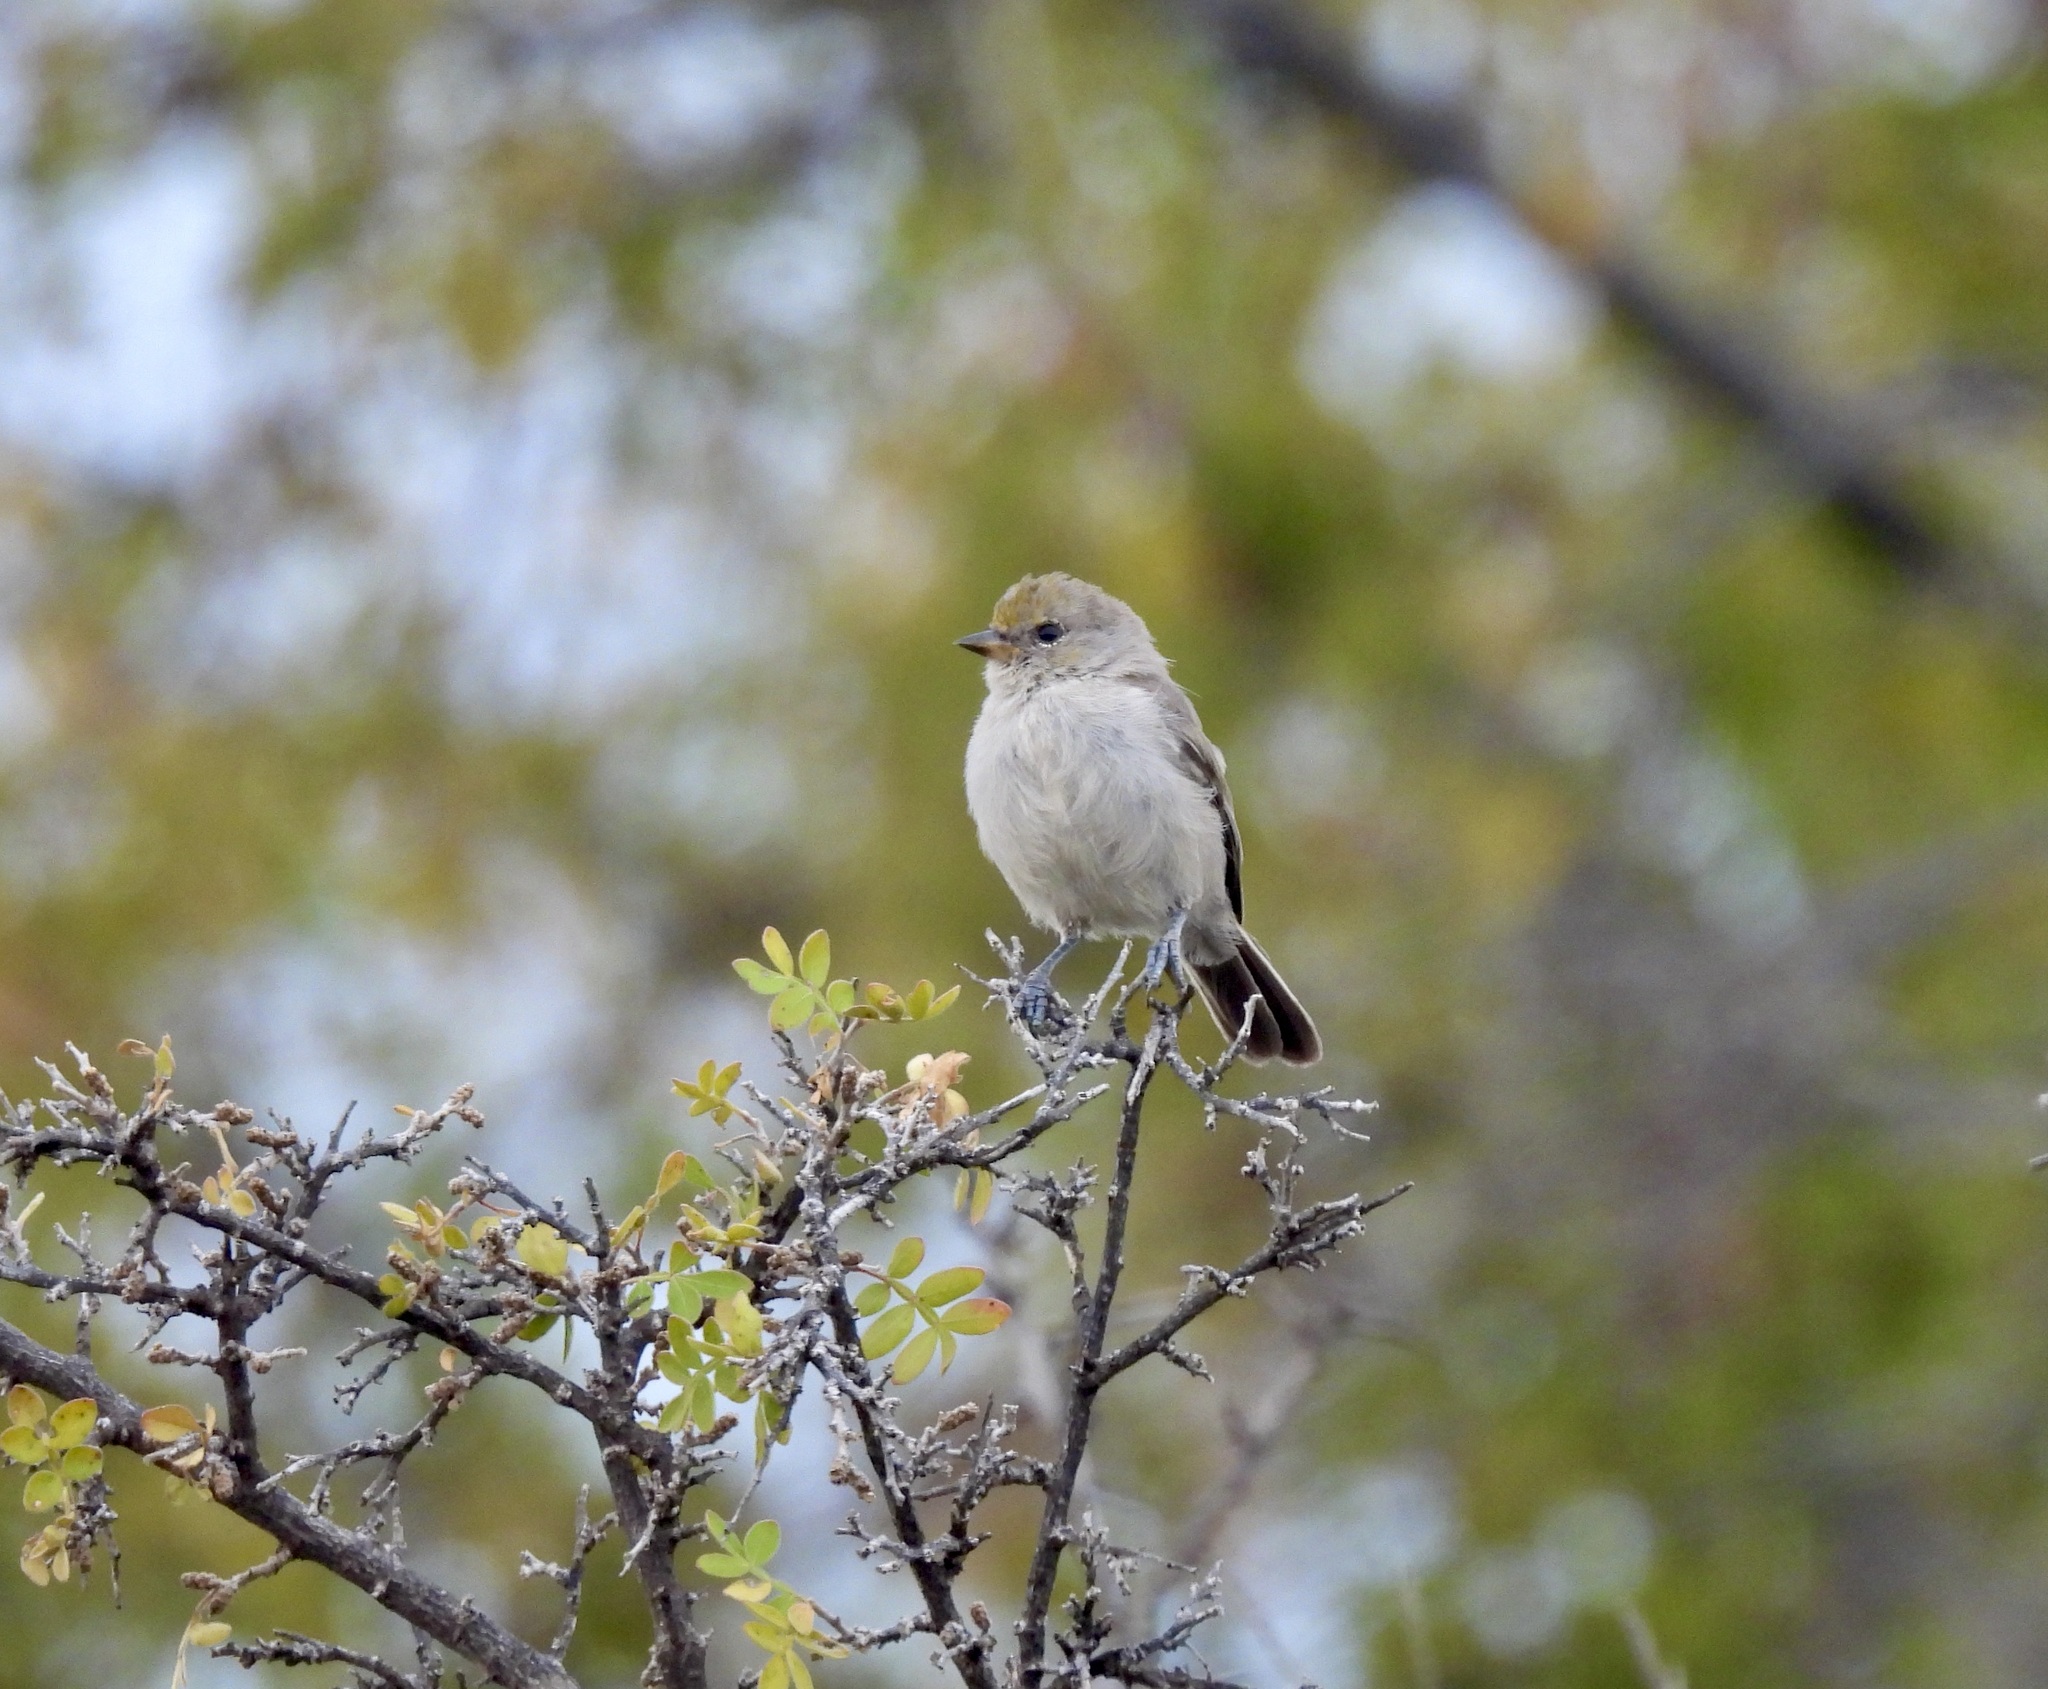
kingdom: Animalia
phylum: Chordata
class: Aves
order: Passeriformes
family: Remizidae
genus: Auriparus
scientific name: Auriparus flaviceps
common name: Verdin
